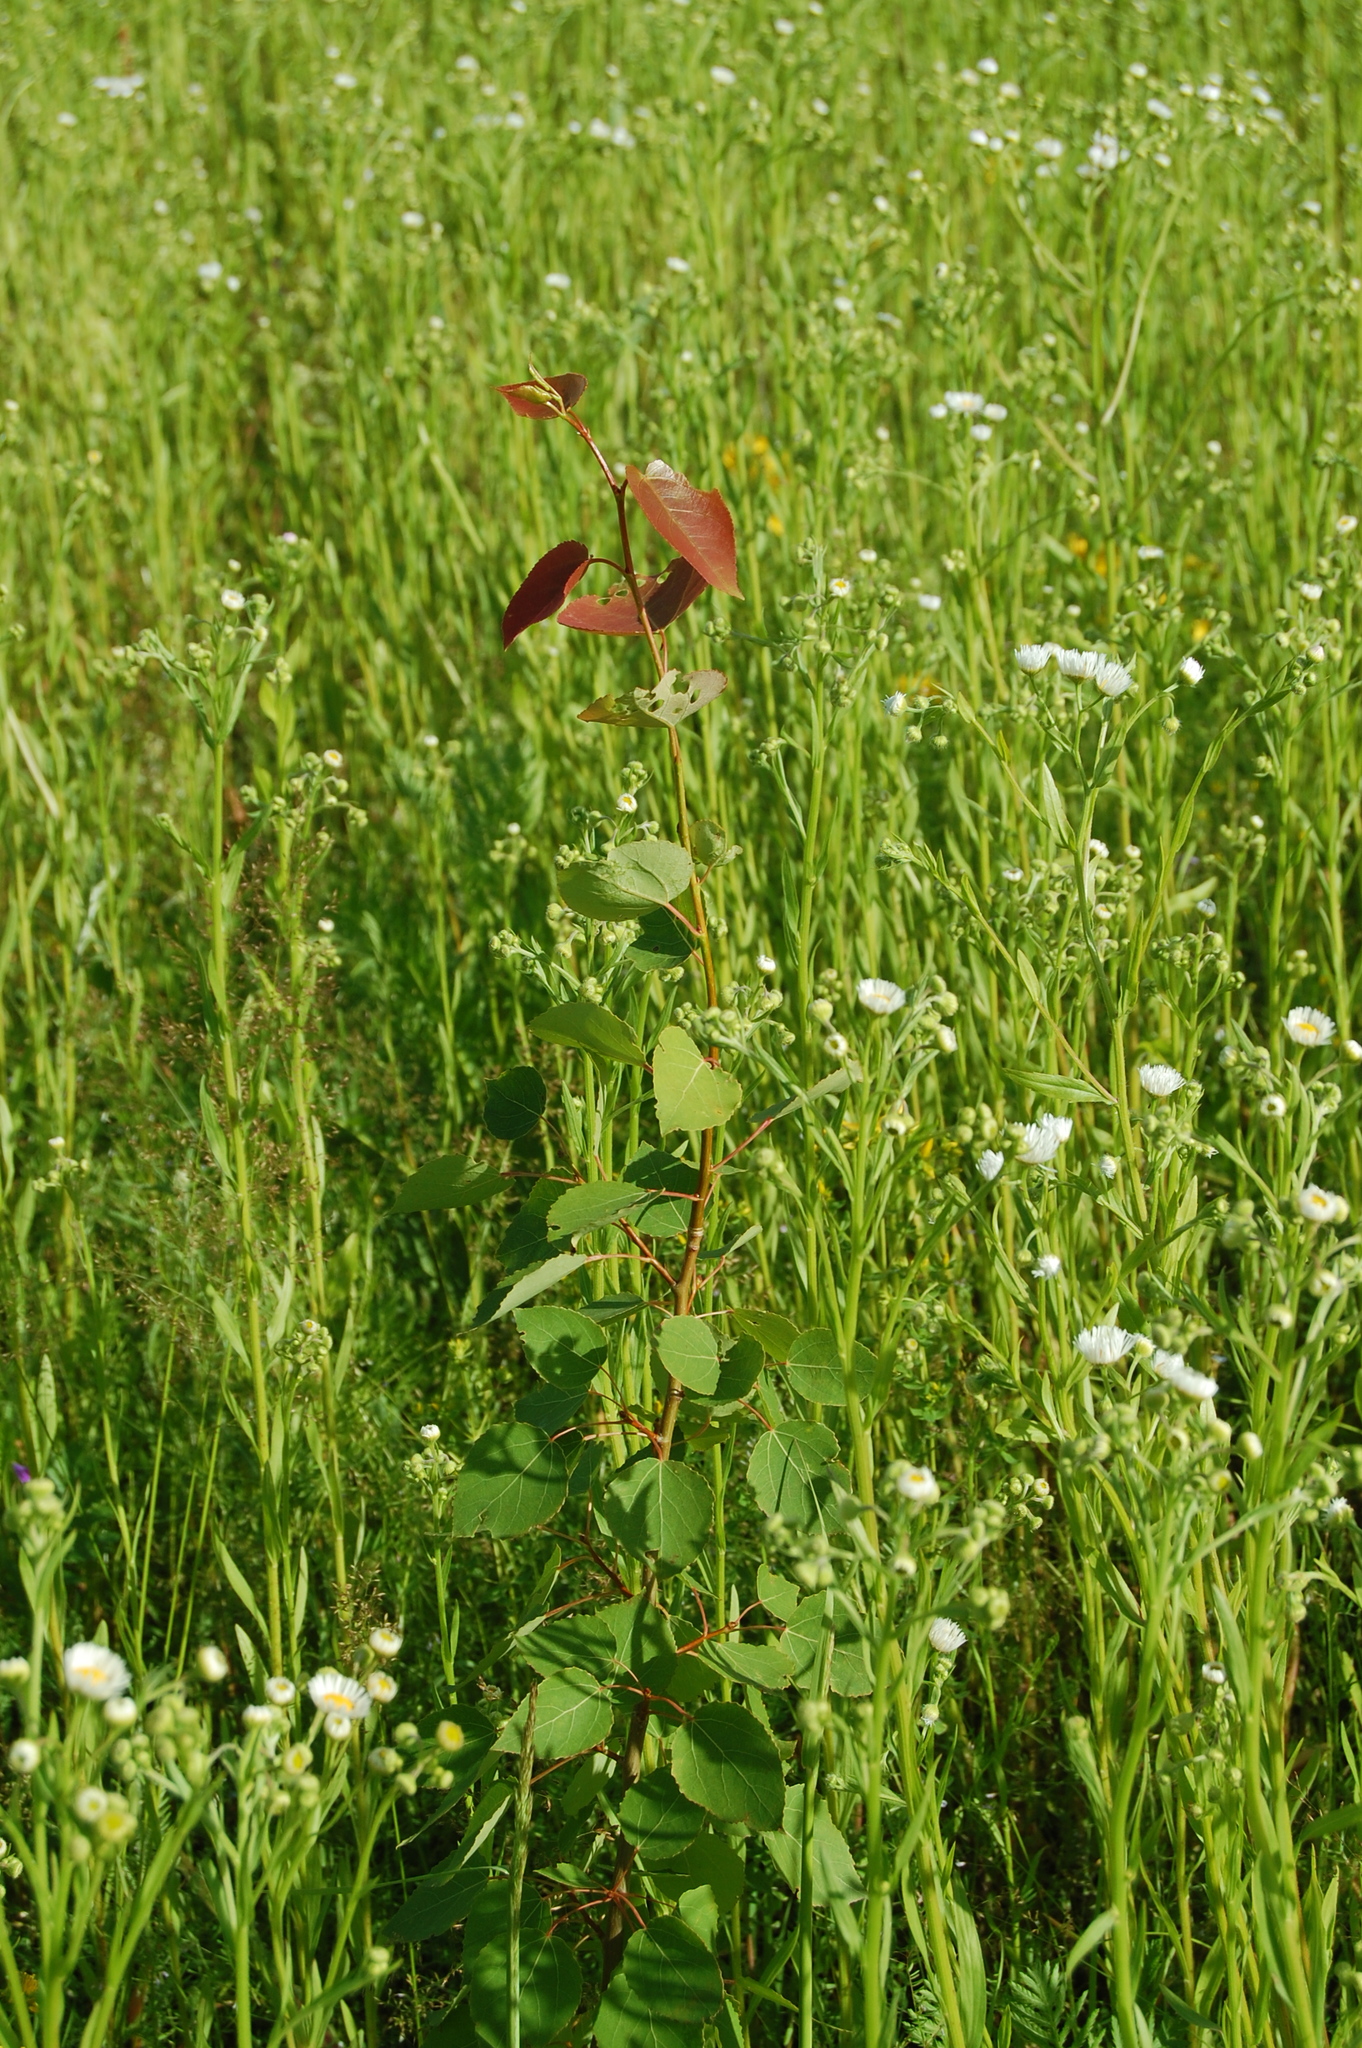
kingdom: Plantae
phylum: Tracheophyta
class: Magnoliopsida
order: Malpighiales
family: Salicaceae
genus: Populus
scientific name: Populus tremula
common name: European aspen
